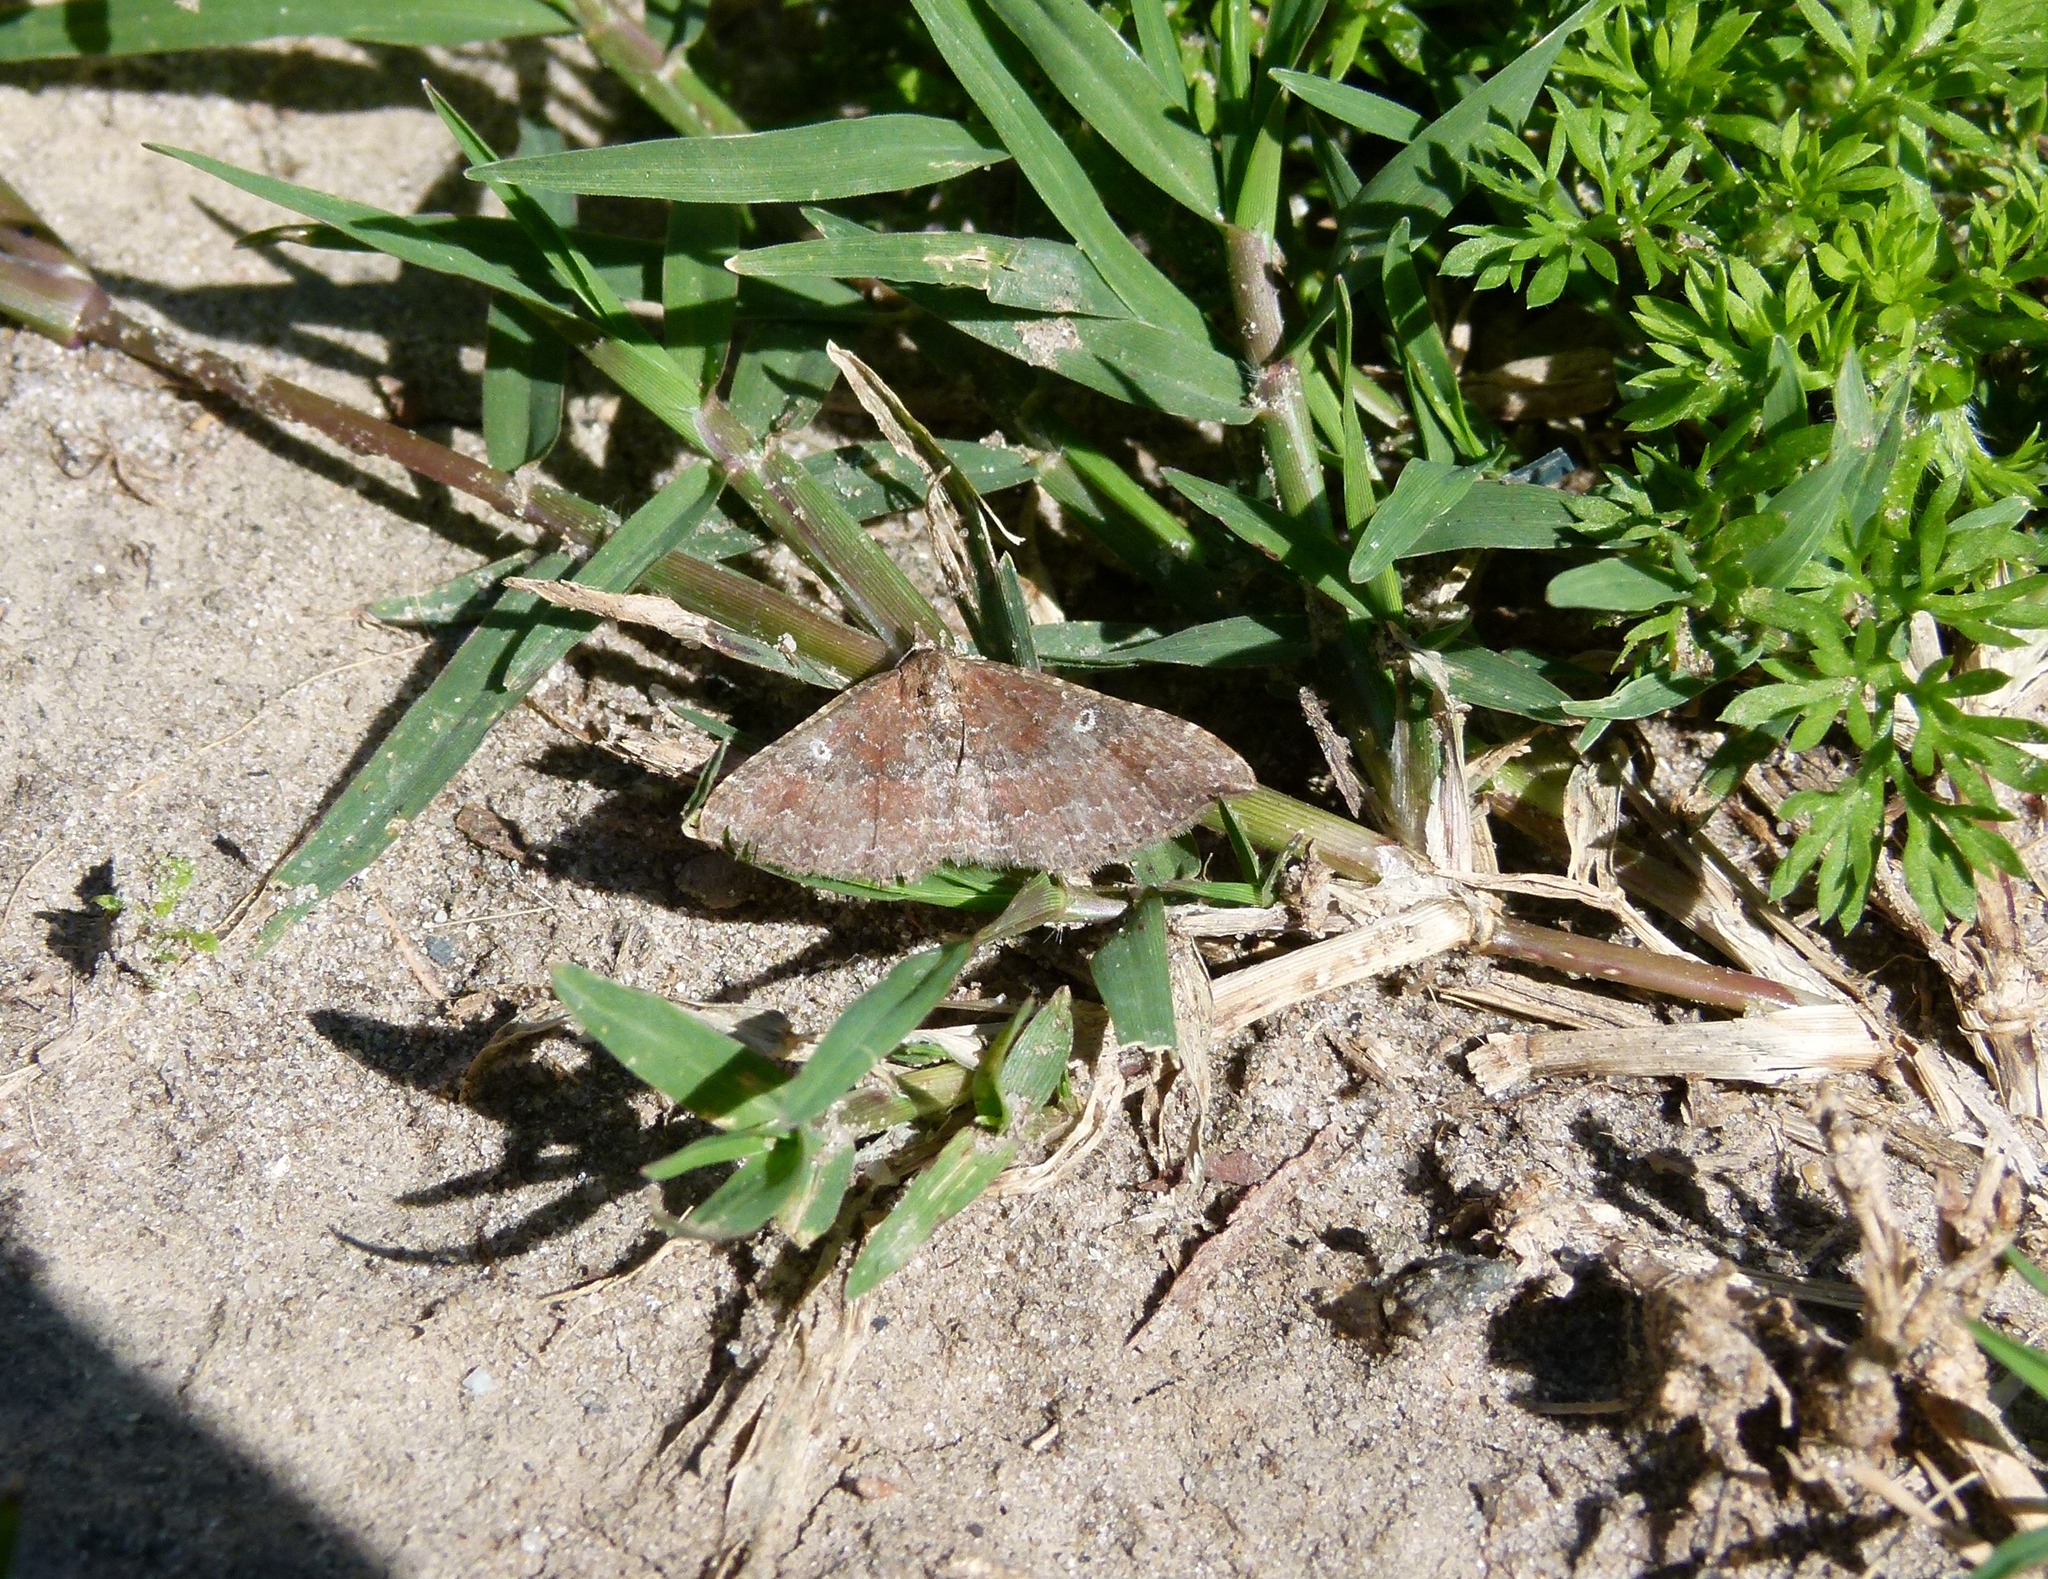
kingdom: Animalia
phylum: Arthropoda
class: Insecta
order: Lepidoptera
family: Geometridae
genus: Orthonama
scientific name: Orthonama obstipata
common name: The gem
